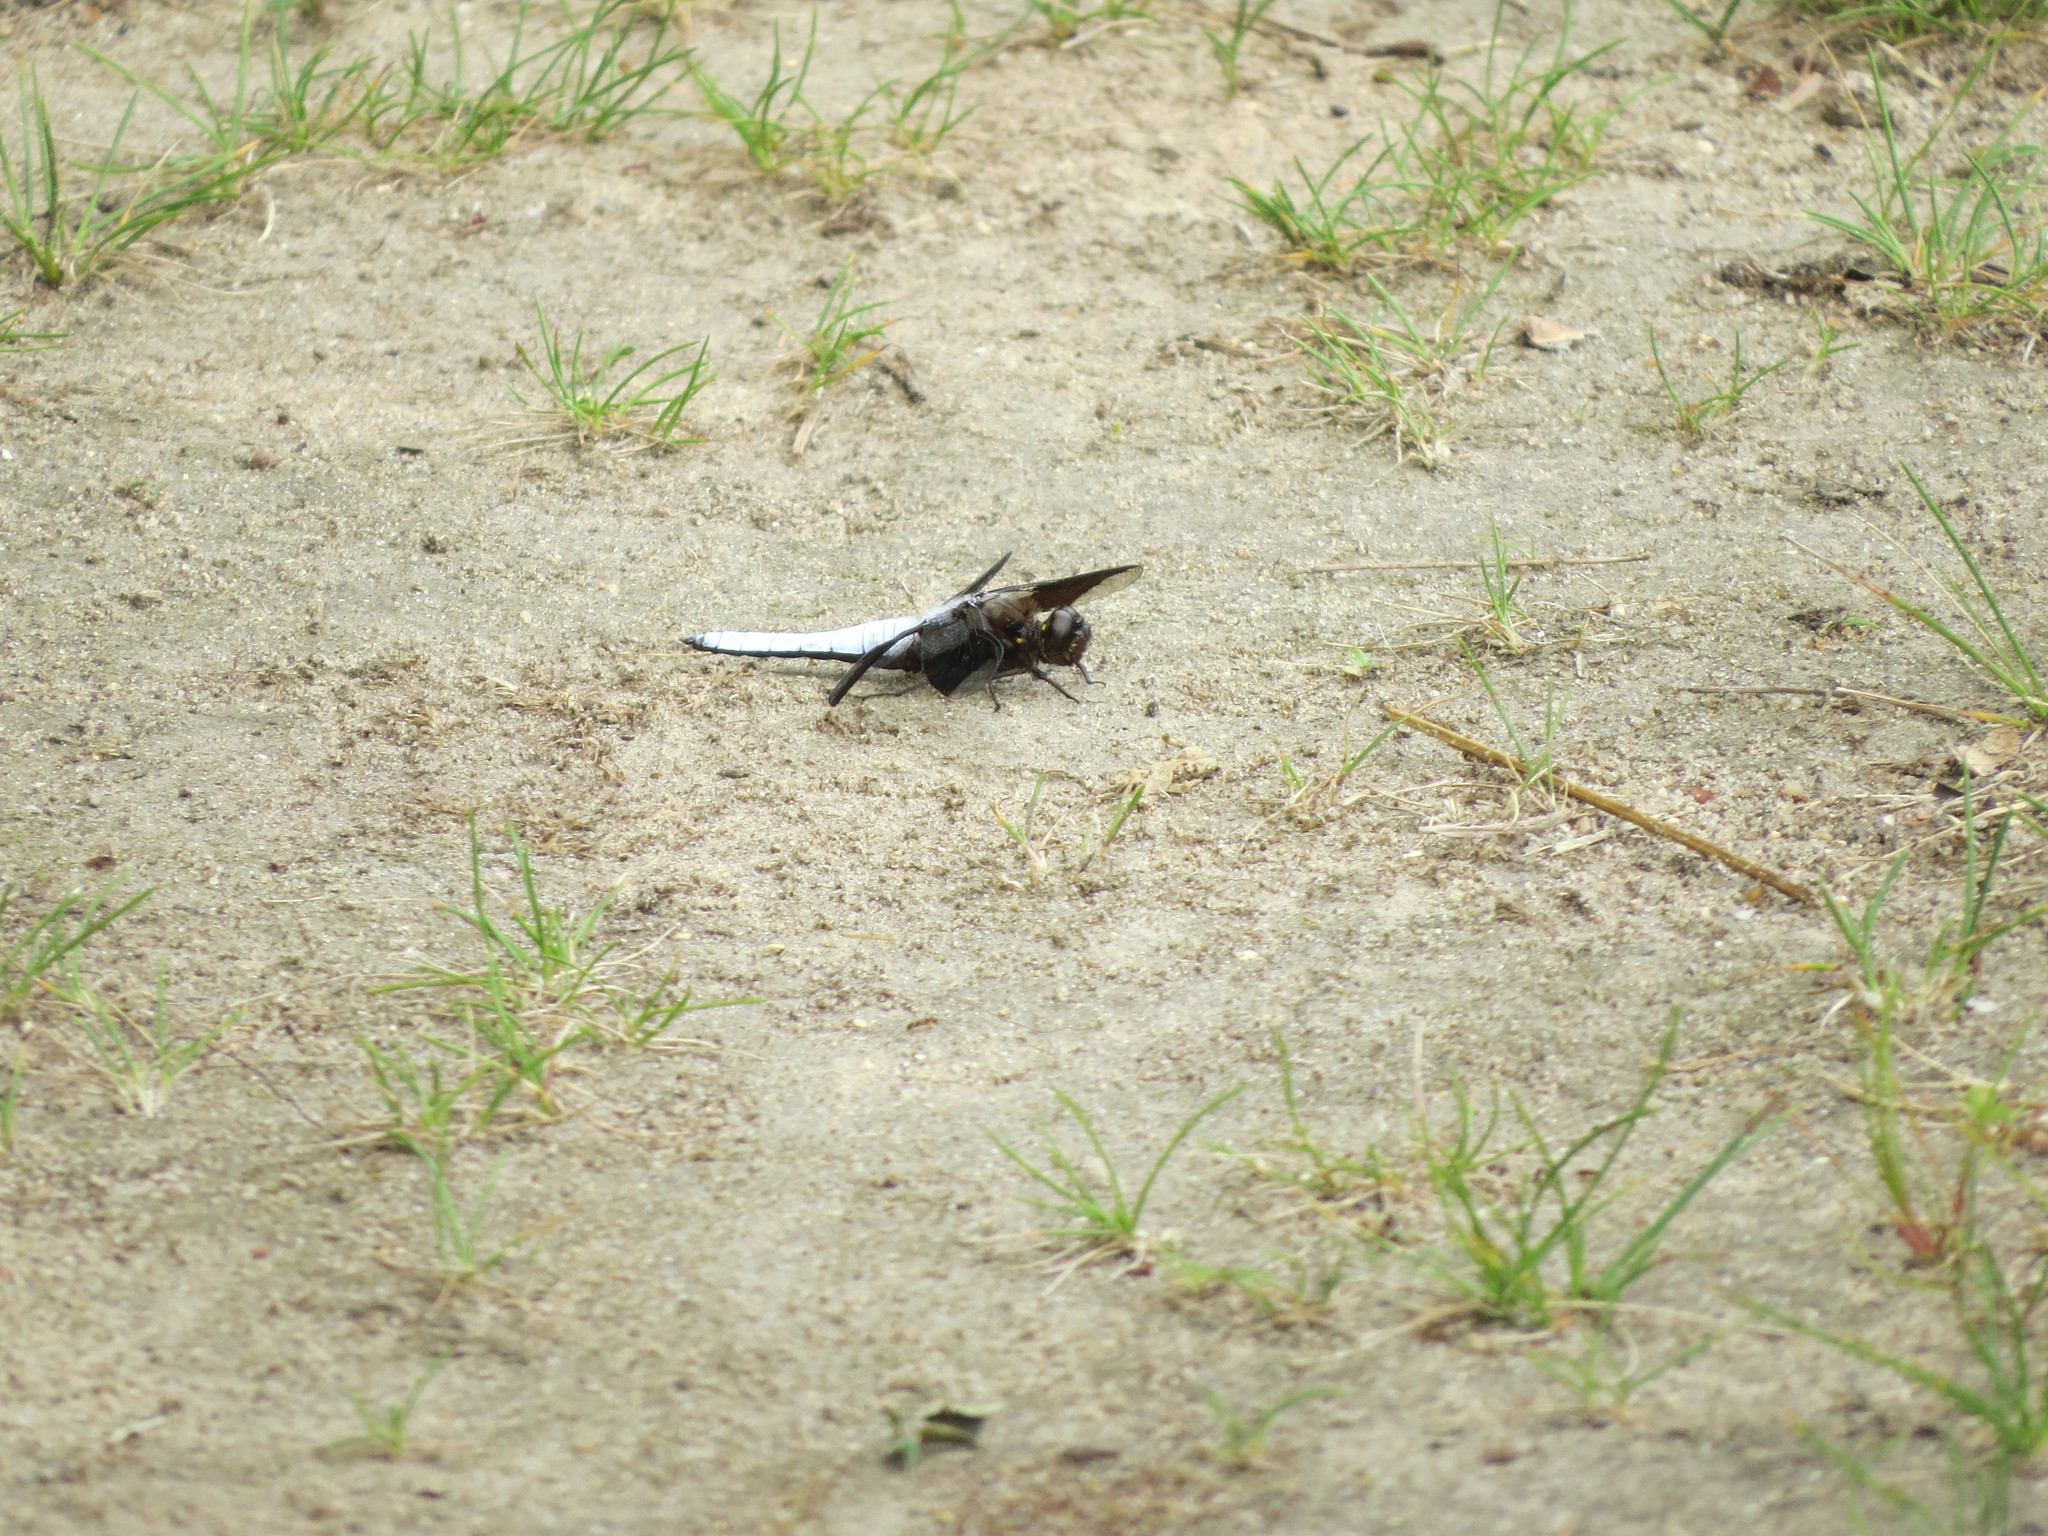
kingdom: Animalia
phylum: Arthropoda
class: Insecta
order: Odonata
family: Libellulidae
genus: Plathemis
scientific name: Plathemis lydia
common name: Common whitetail
